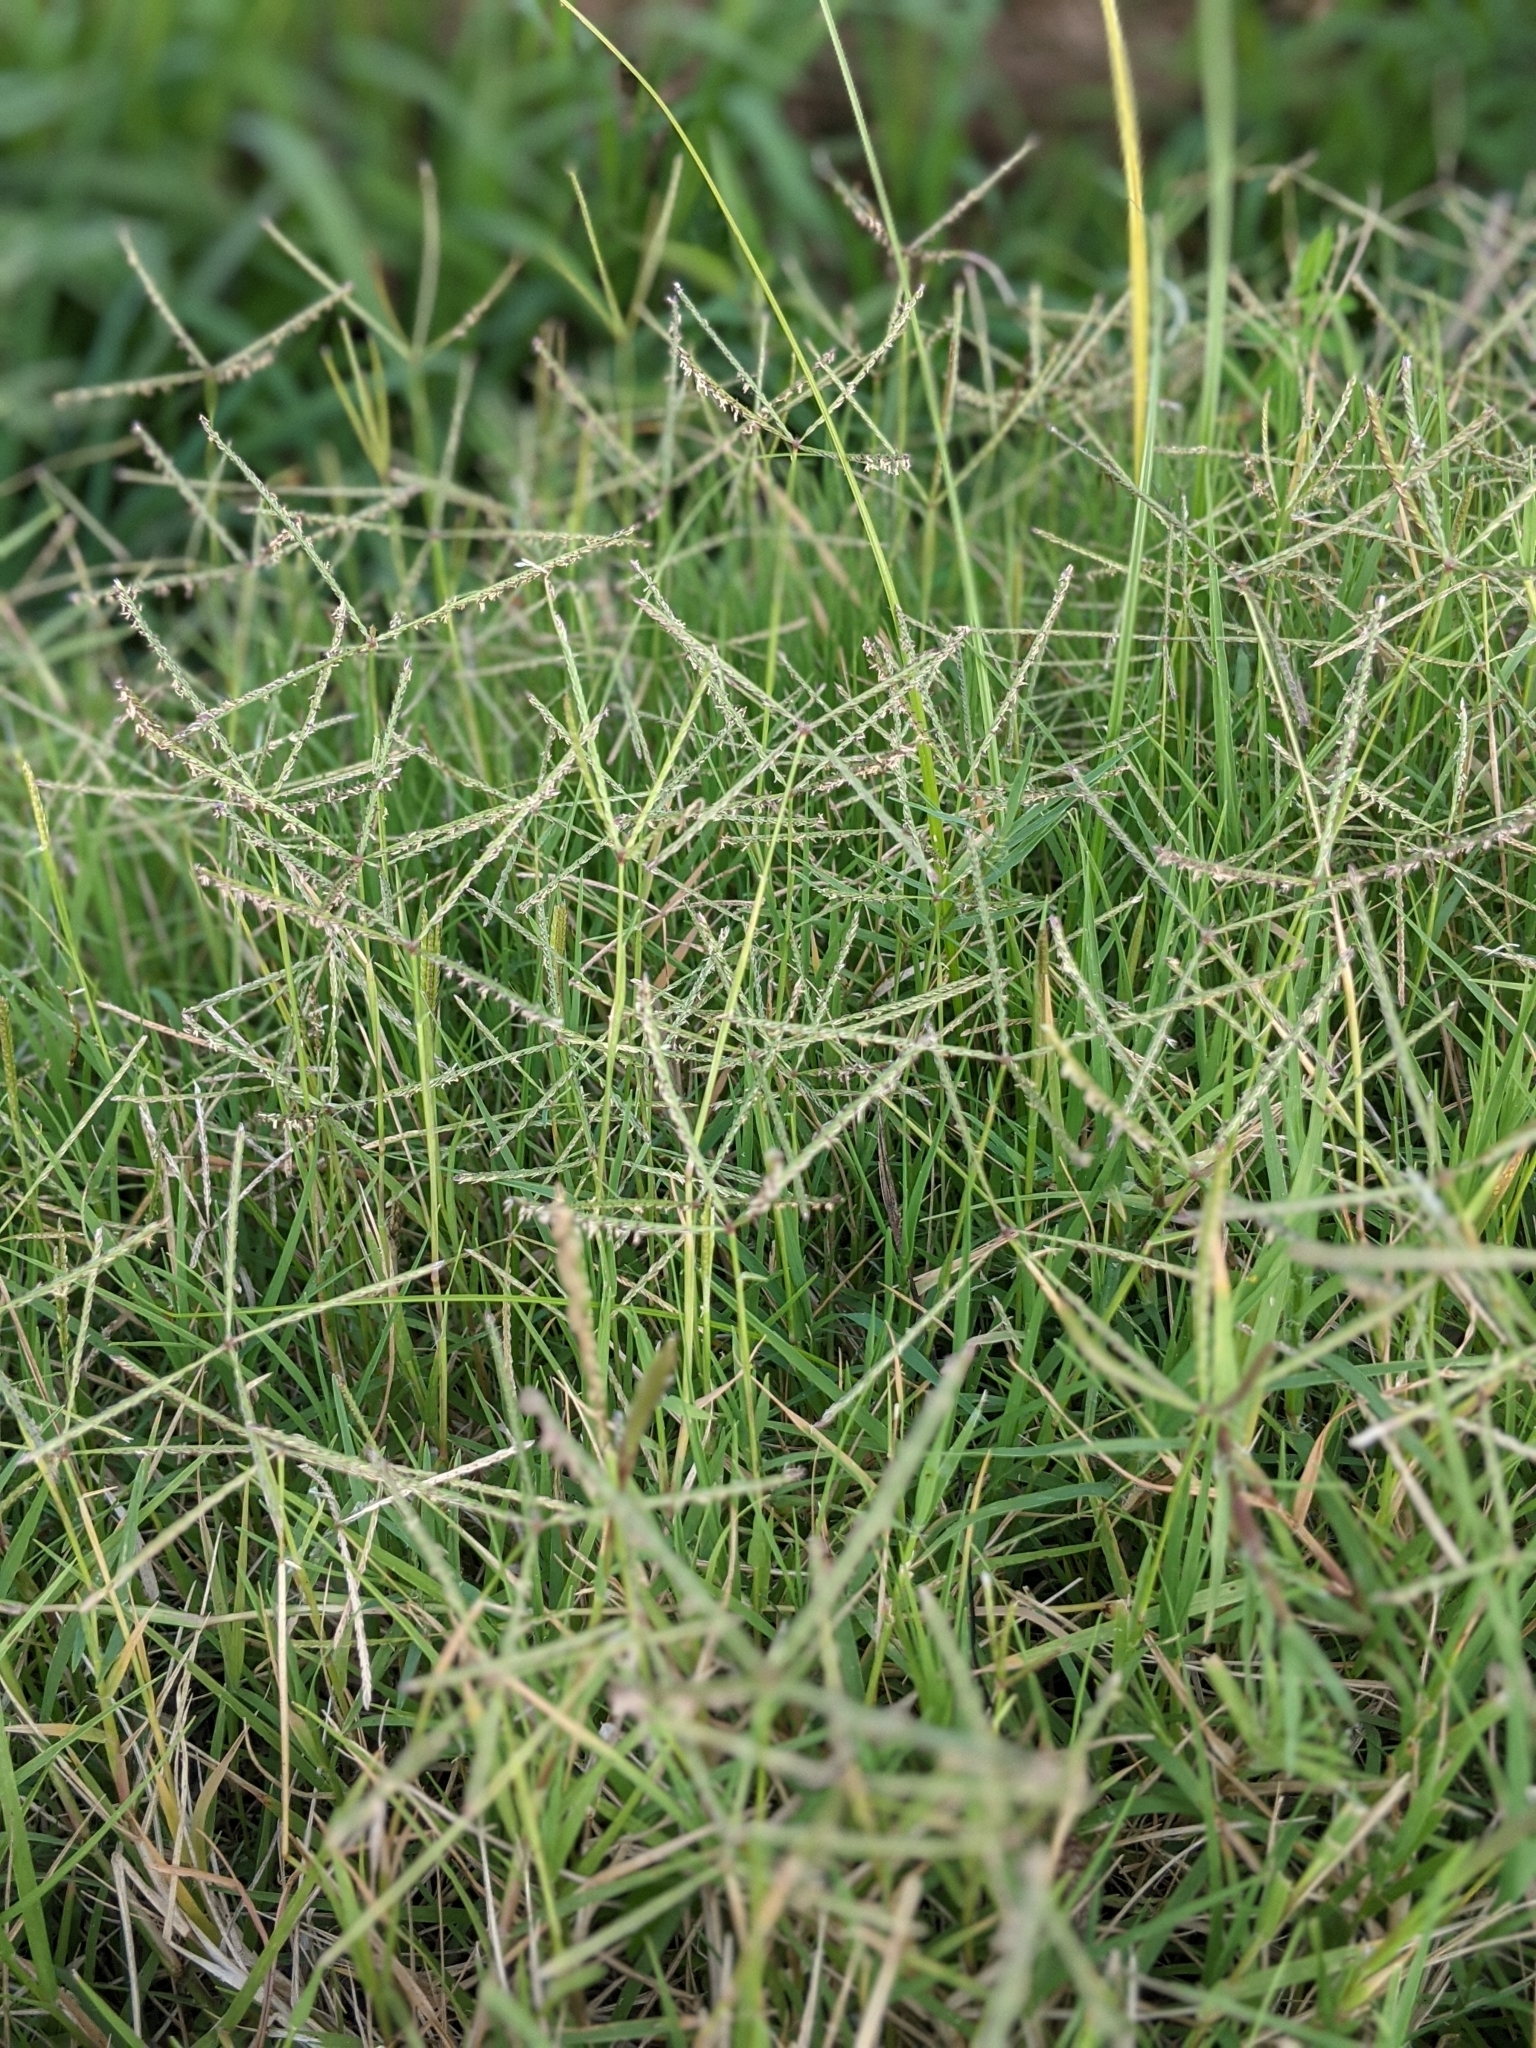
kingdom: Plantae
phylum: Tracheophyta
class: Liliopsida
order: Poales
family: Poaceae
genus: Cynodon
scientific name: Cynodon dactylon
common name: Bermuda grass
